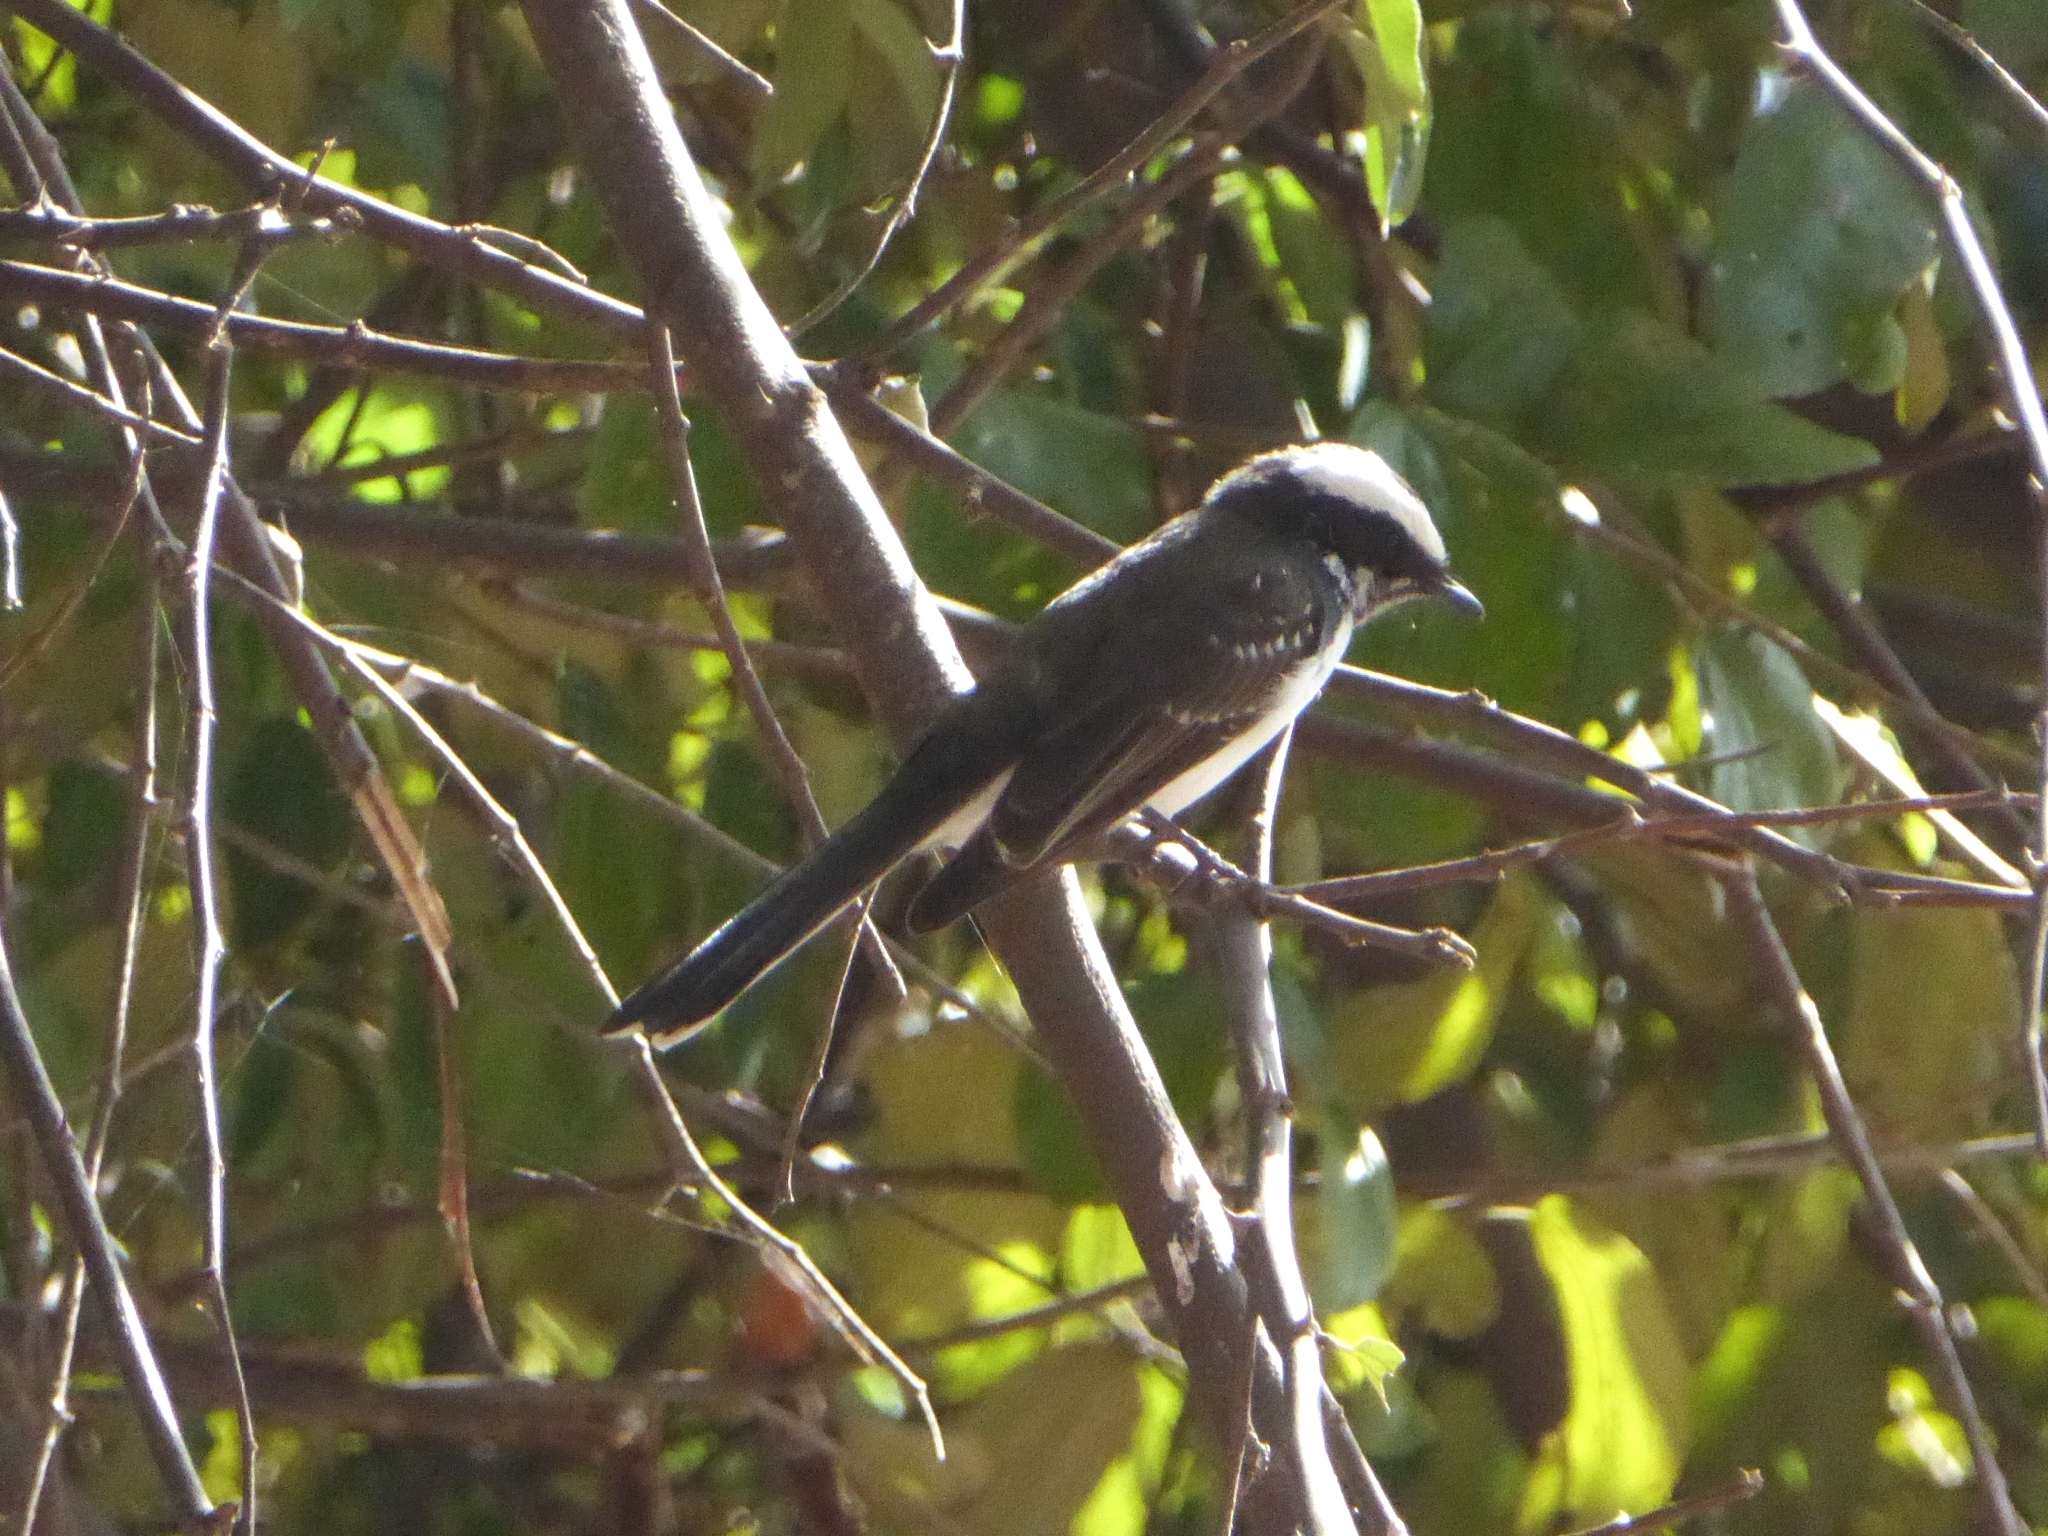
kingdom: Animalia
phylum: Chordata
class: Aves
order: Passeriformes
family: Rhipiduridae
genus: Rhipidura
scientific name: Rhipidura aureola
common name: White-browed fantail
